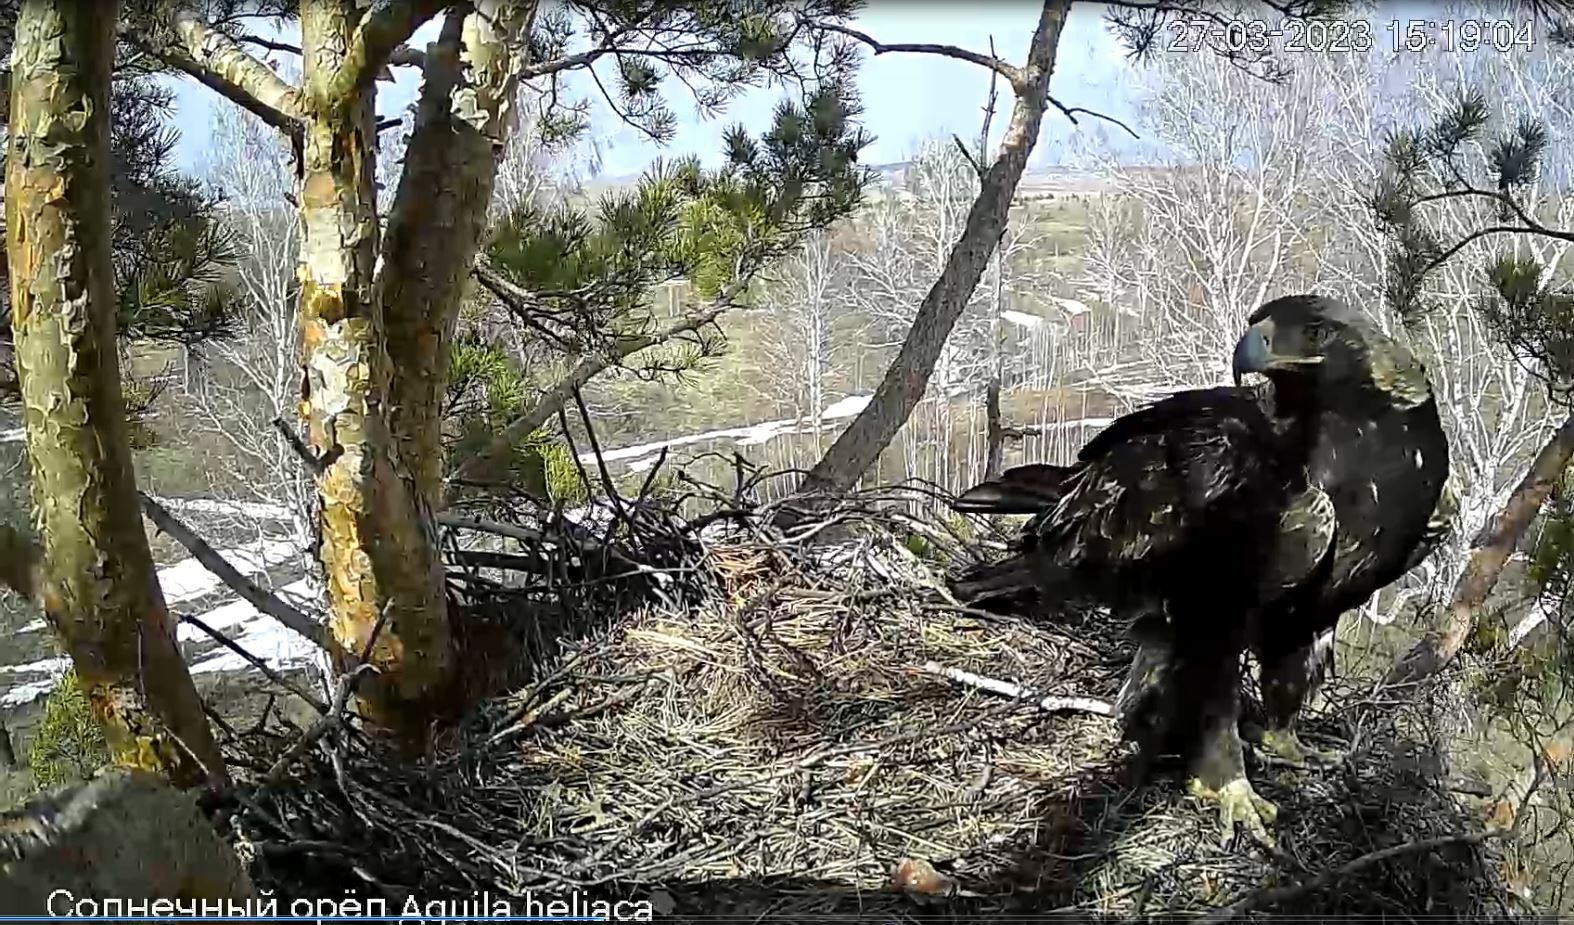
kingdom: Animalia
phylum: Chordata
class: Aves
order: Accipitriformes
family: Accipitridae
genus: Aquila
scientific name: Aquila heliaca
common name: Eastern imperial eagle
